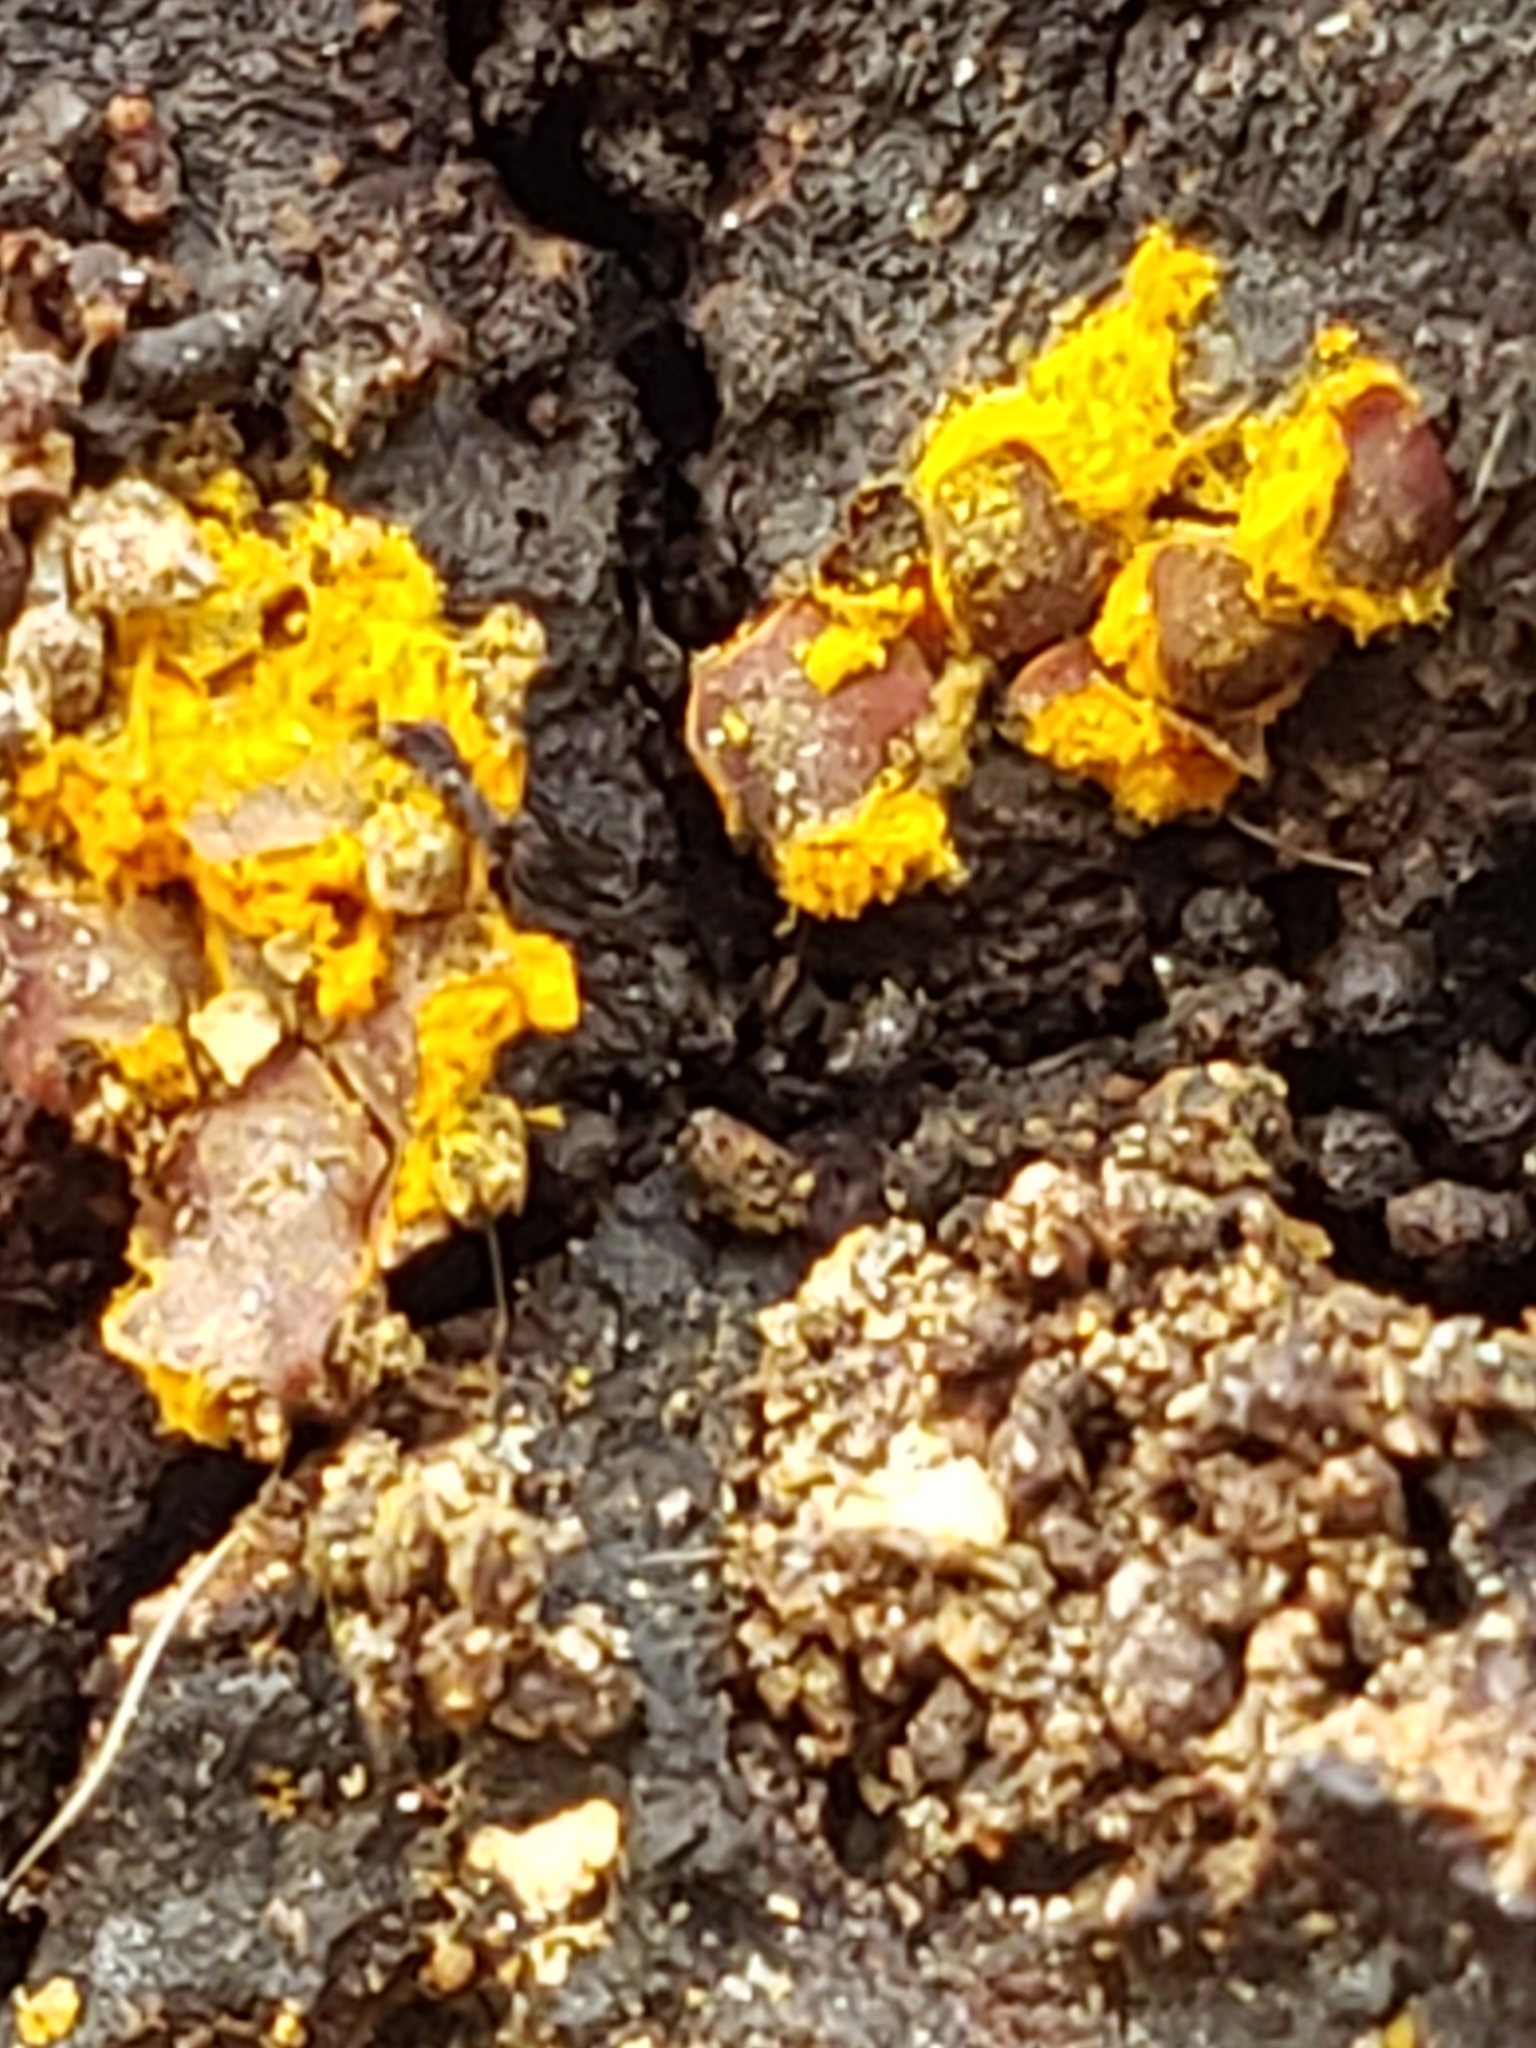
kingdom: Protozoa
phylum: Mycetozoa
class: Myxomycetes
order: Trichiales
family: Trichiaceae
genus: Perichaena
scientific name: Perichaena depressa
